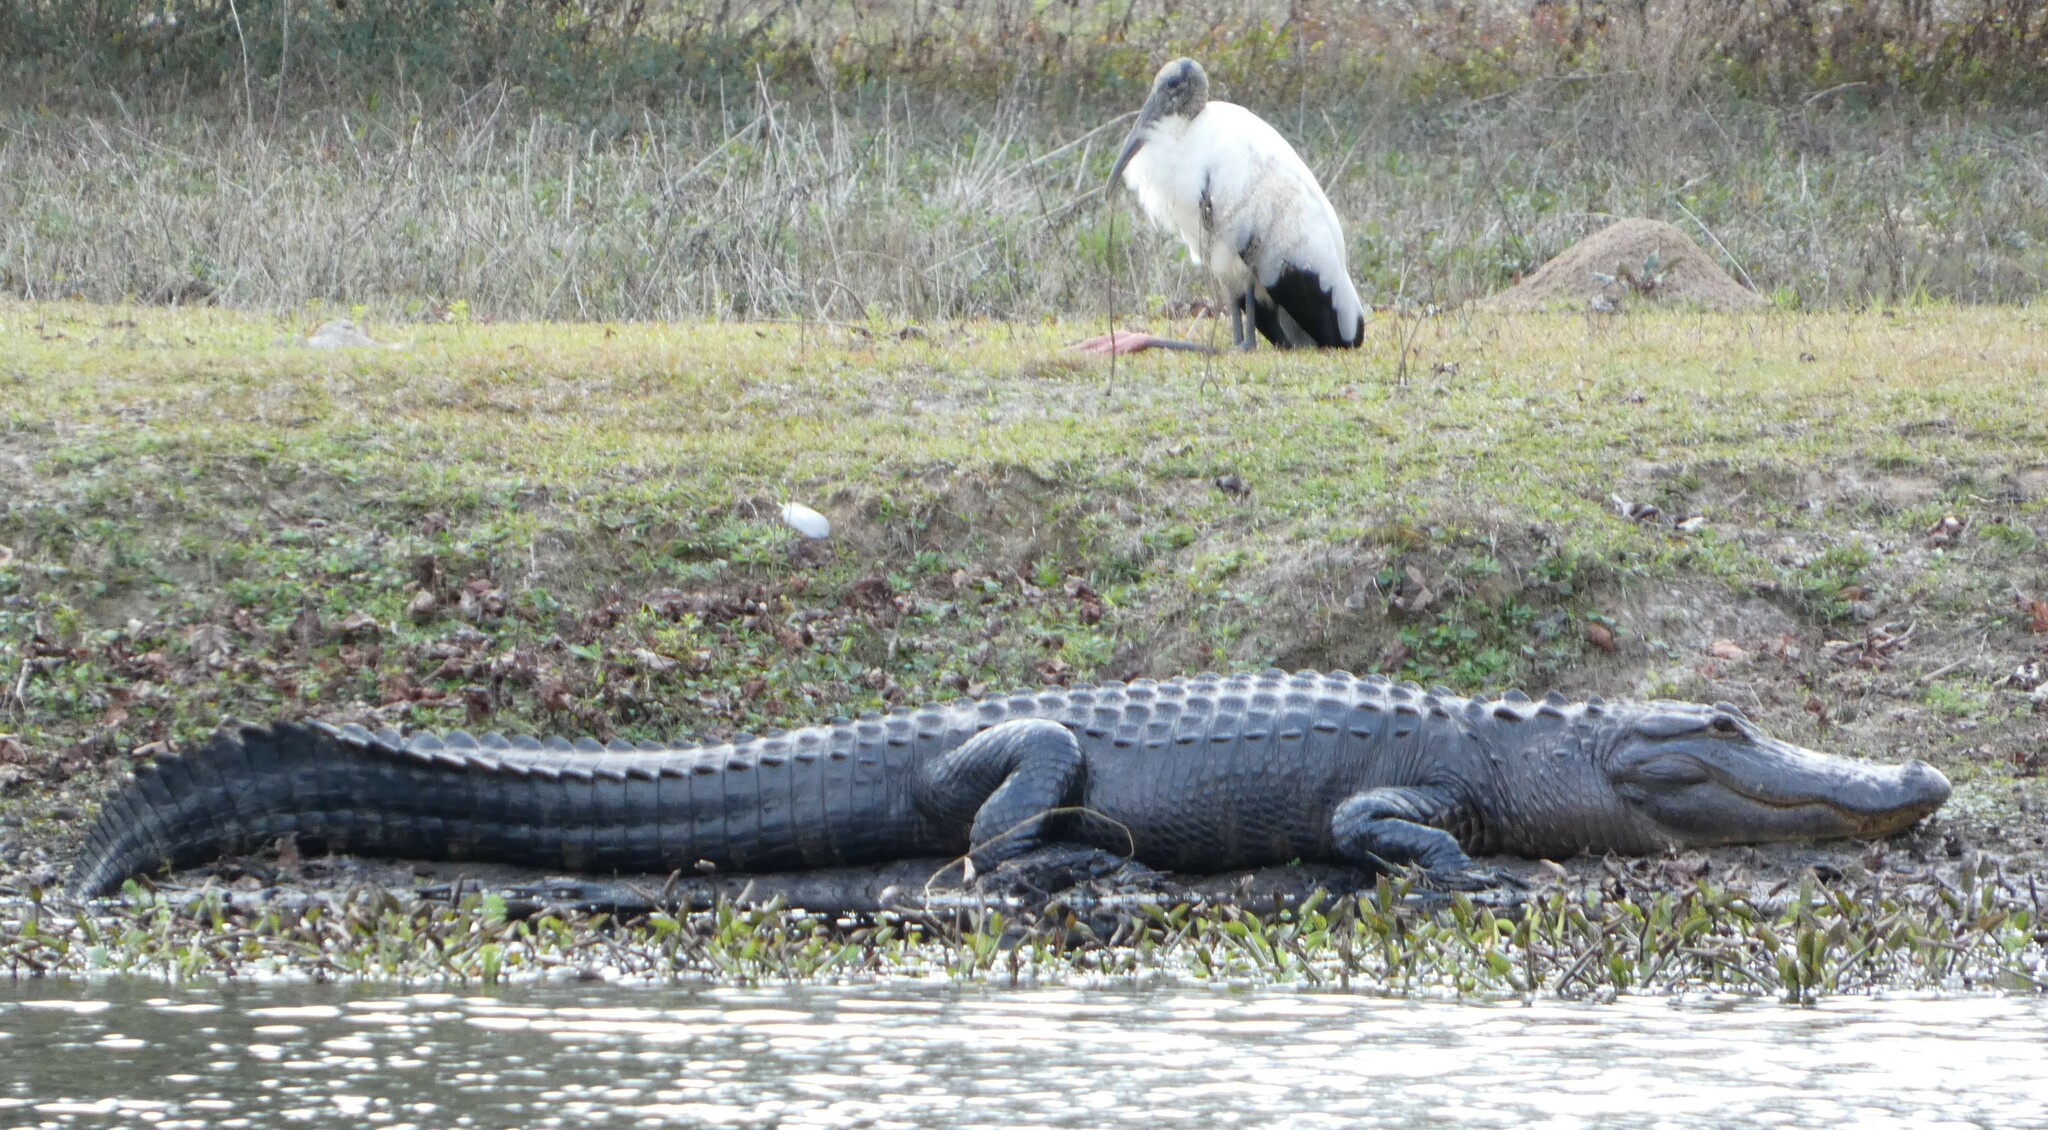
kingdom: Animalia
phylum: Chordata
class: Crocodylia
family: Alligatoridae
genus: Alligator
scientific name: Alligator mississippiensis
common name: American alligator
